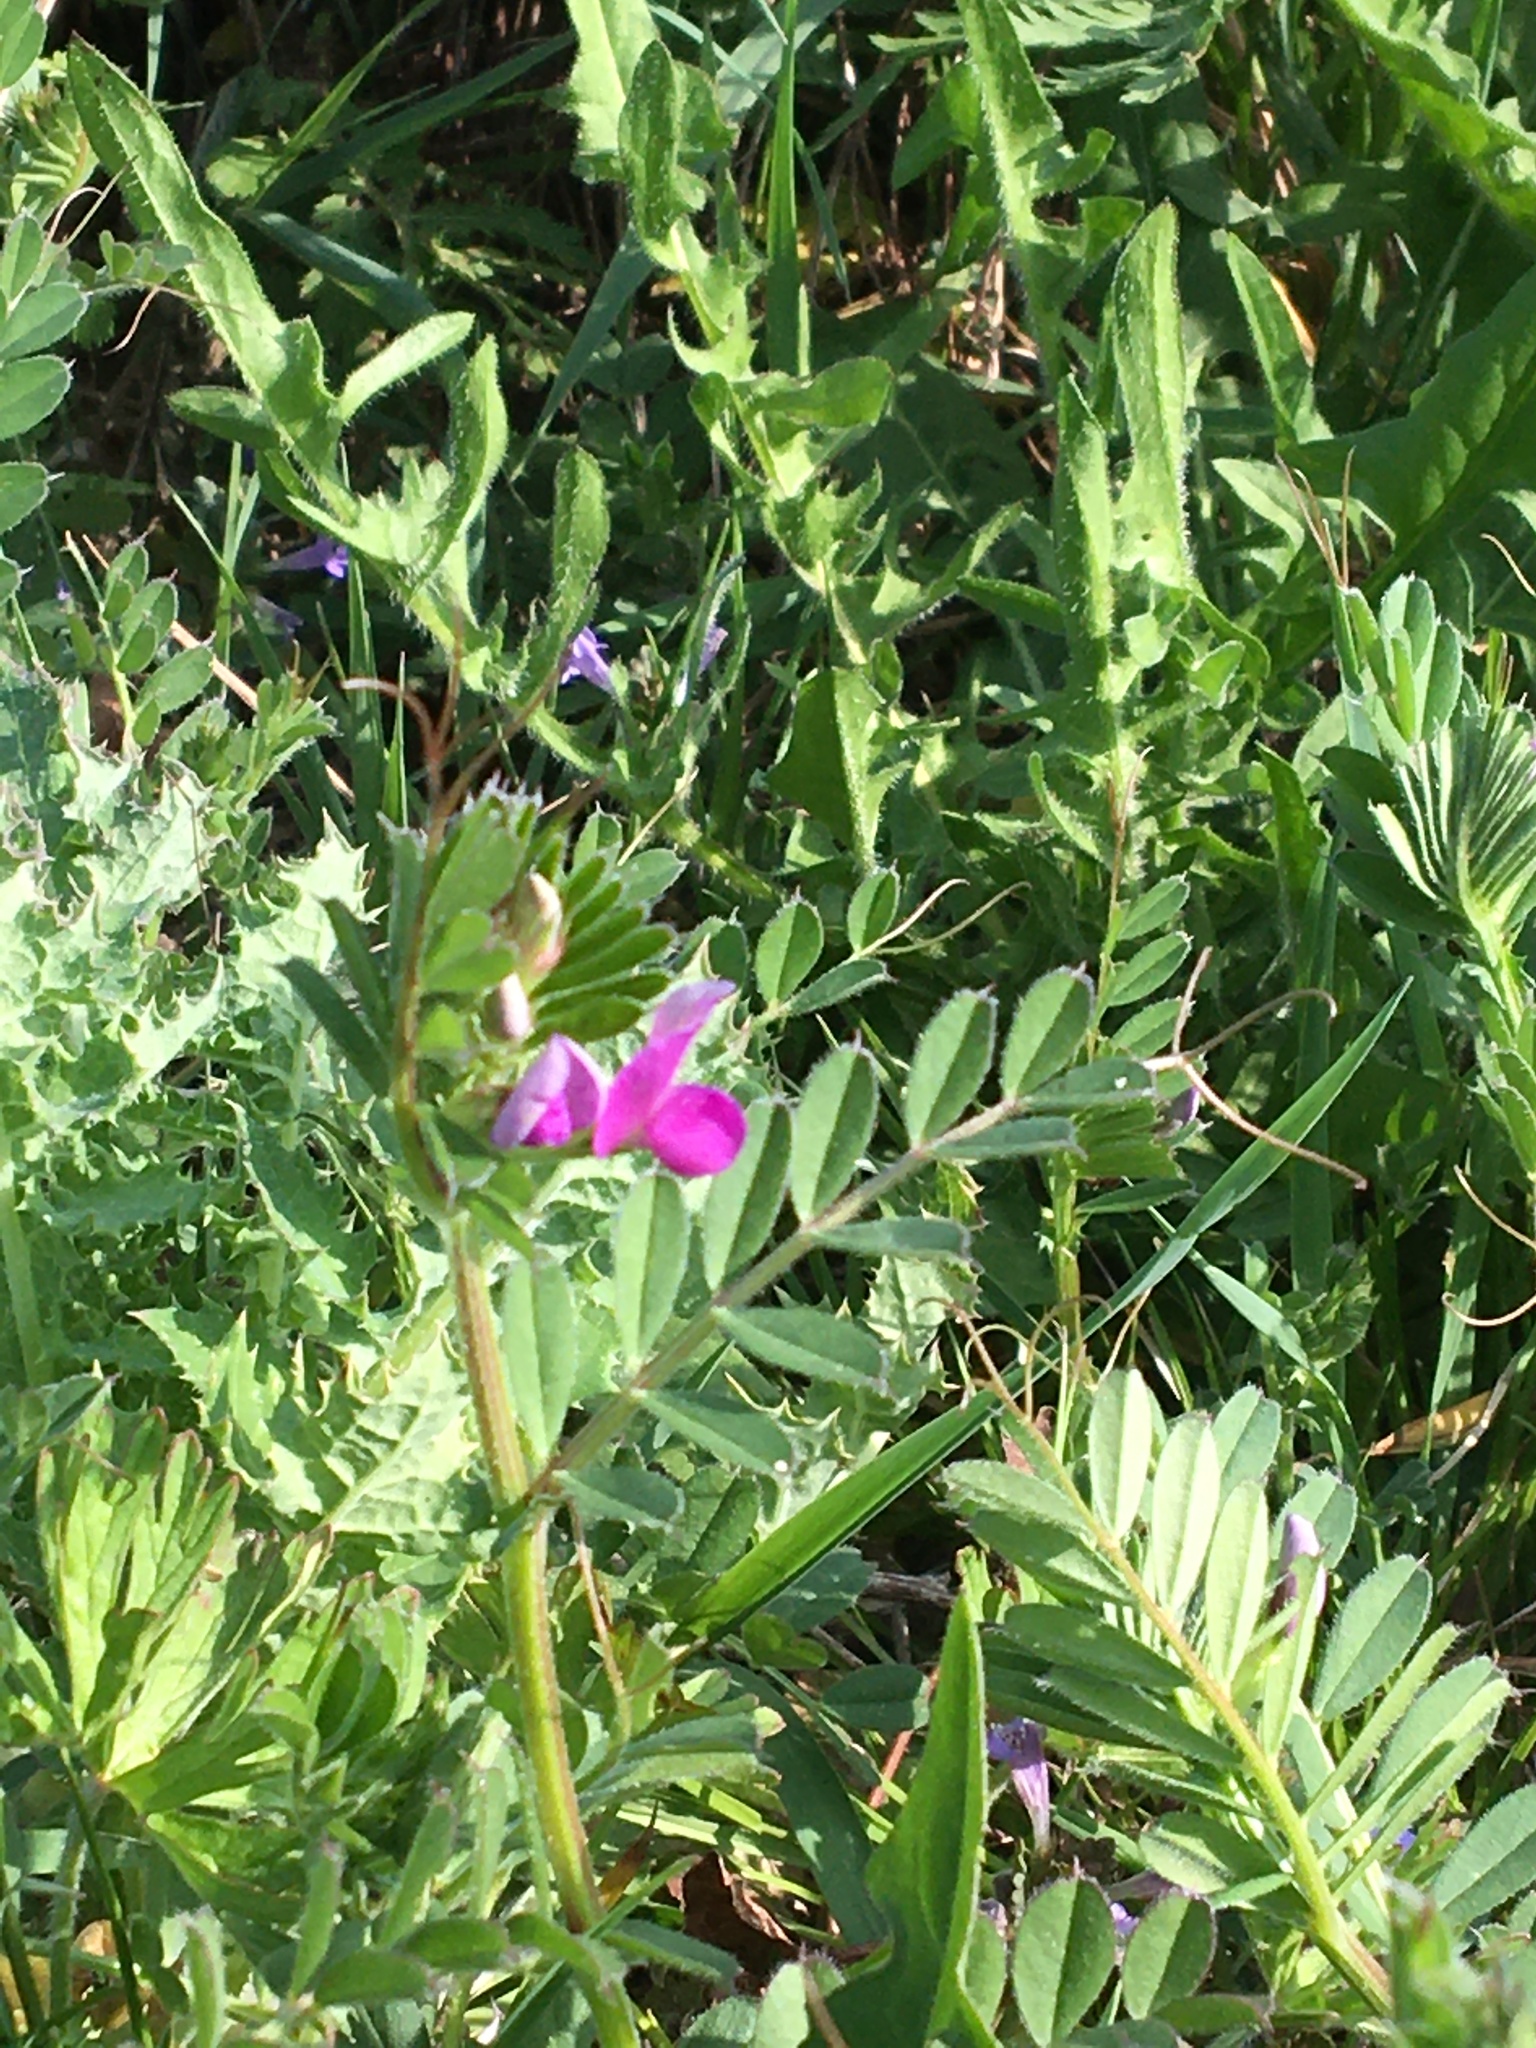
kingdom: Plantae
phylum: Tracheophyta
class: Magnoliopsida
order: Fabales
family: Fabaceae
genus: Vicia
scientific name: Vicia sativa
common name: Garden vetch
